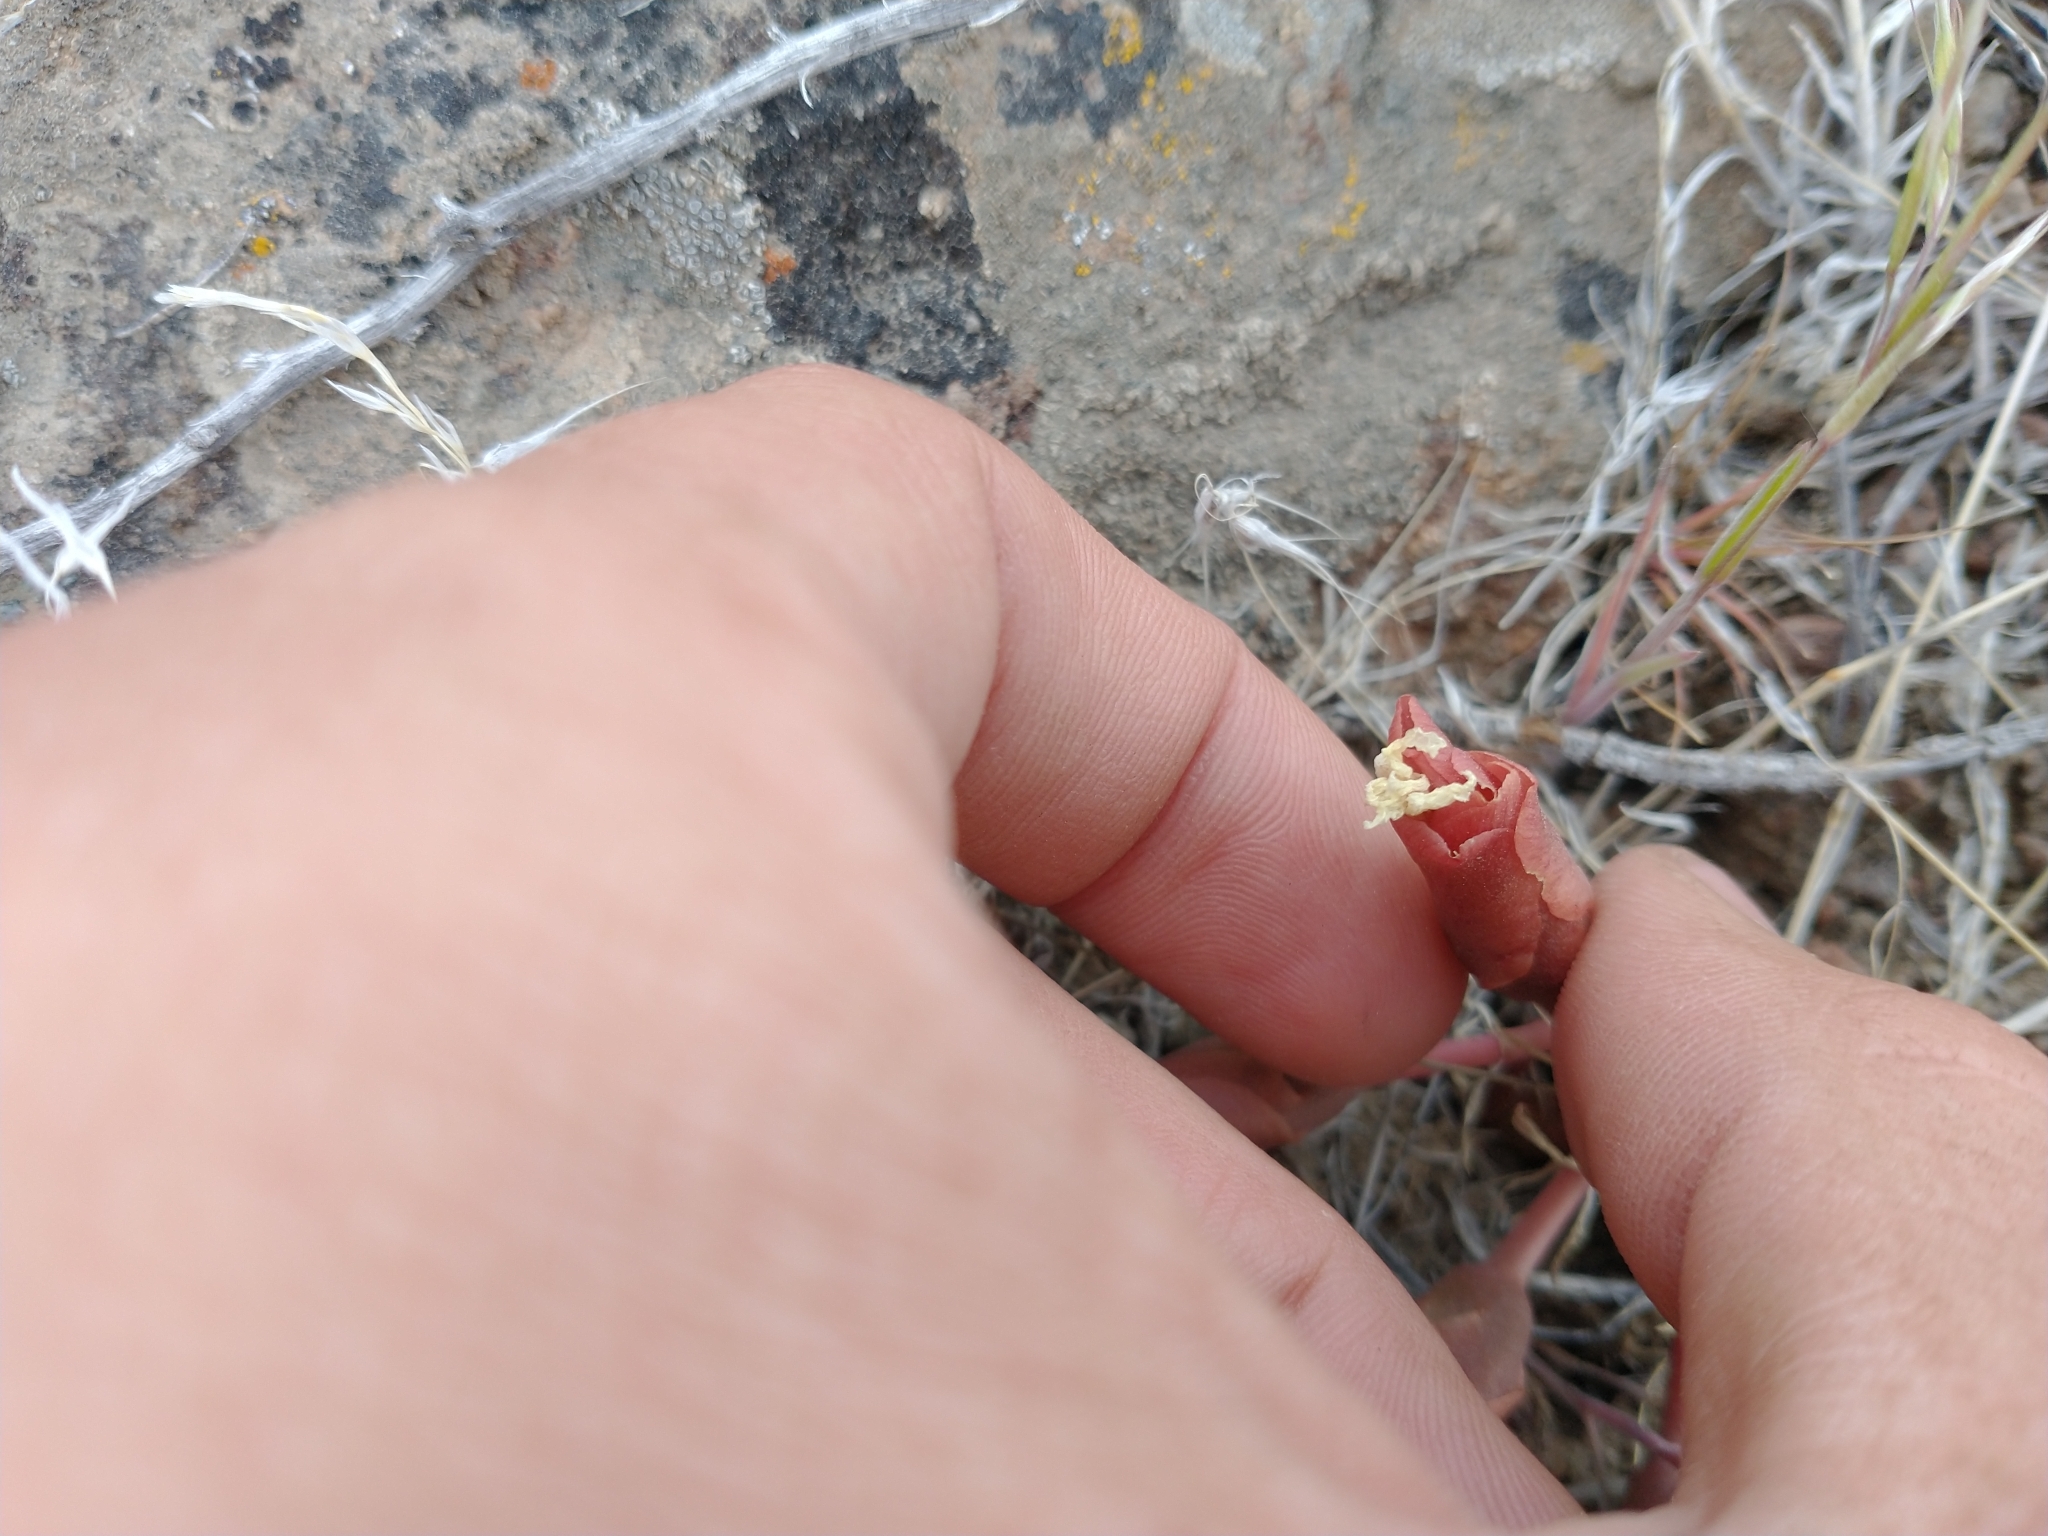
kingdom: Plantae
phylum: Tracheophyta
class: Magnoliopsida
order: Caryophyllales
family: Montiaceae
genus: Lewisia
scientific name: Lewisia rediviva
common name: Bitter-root
